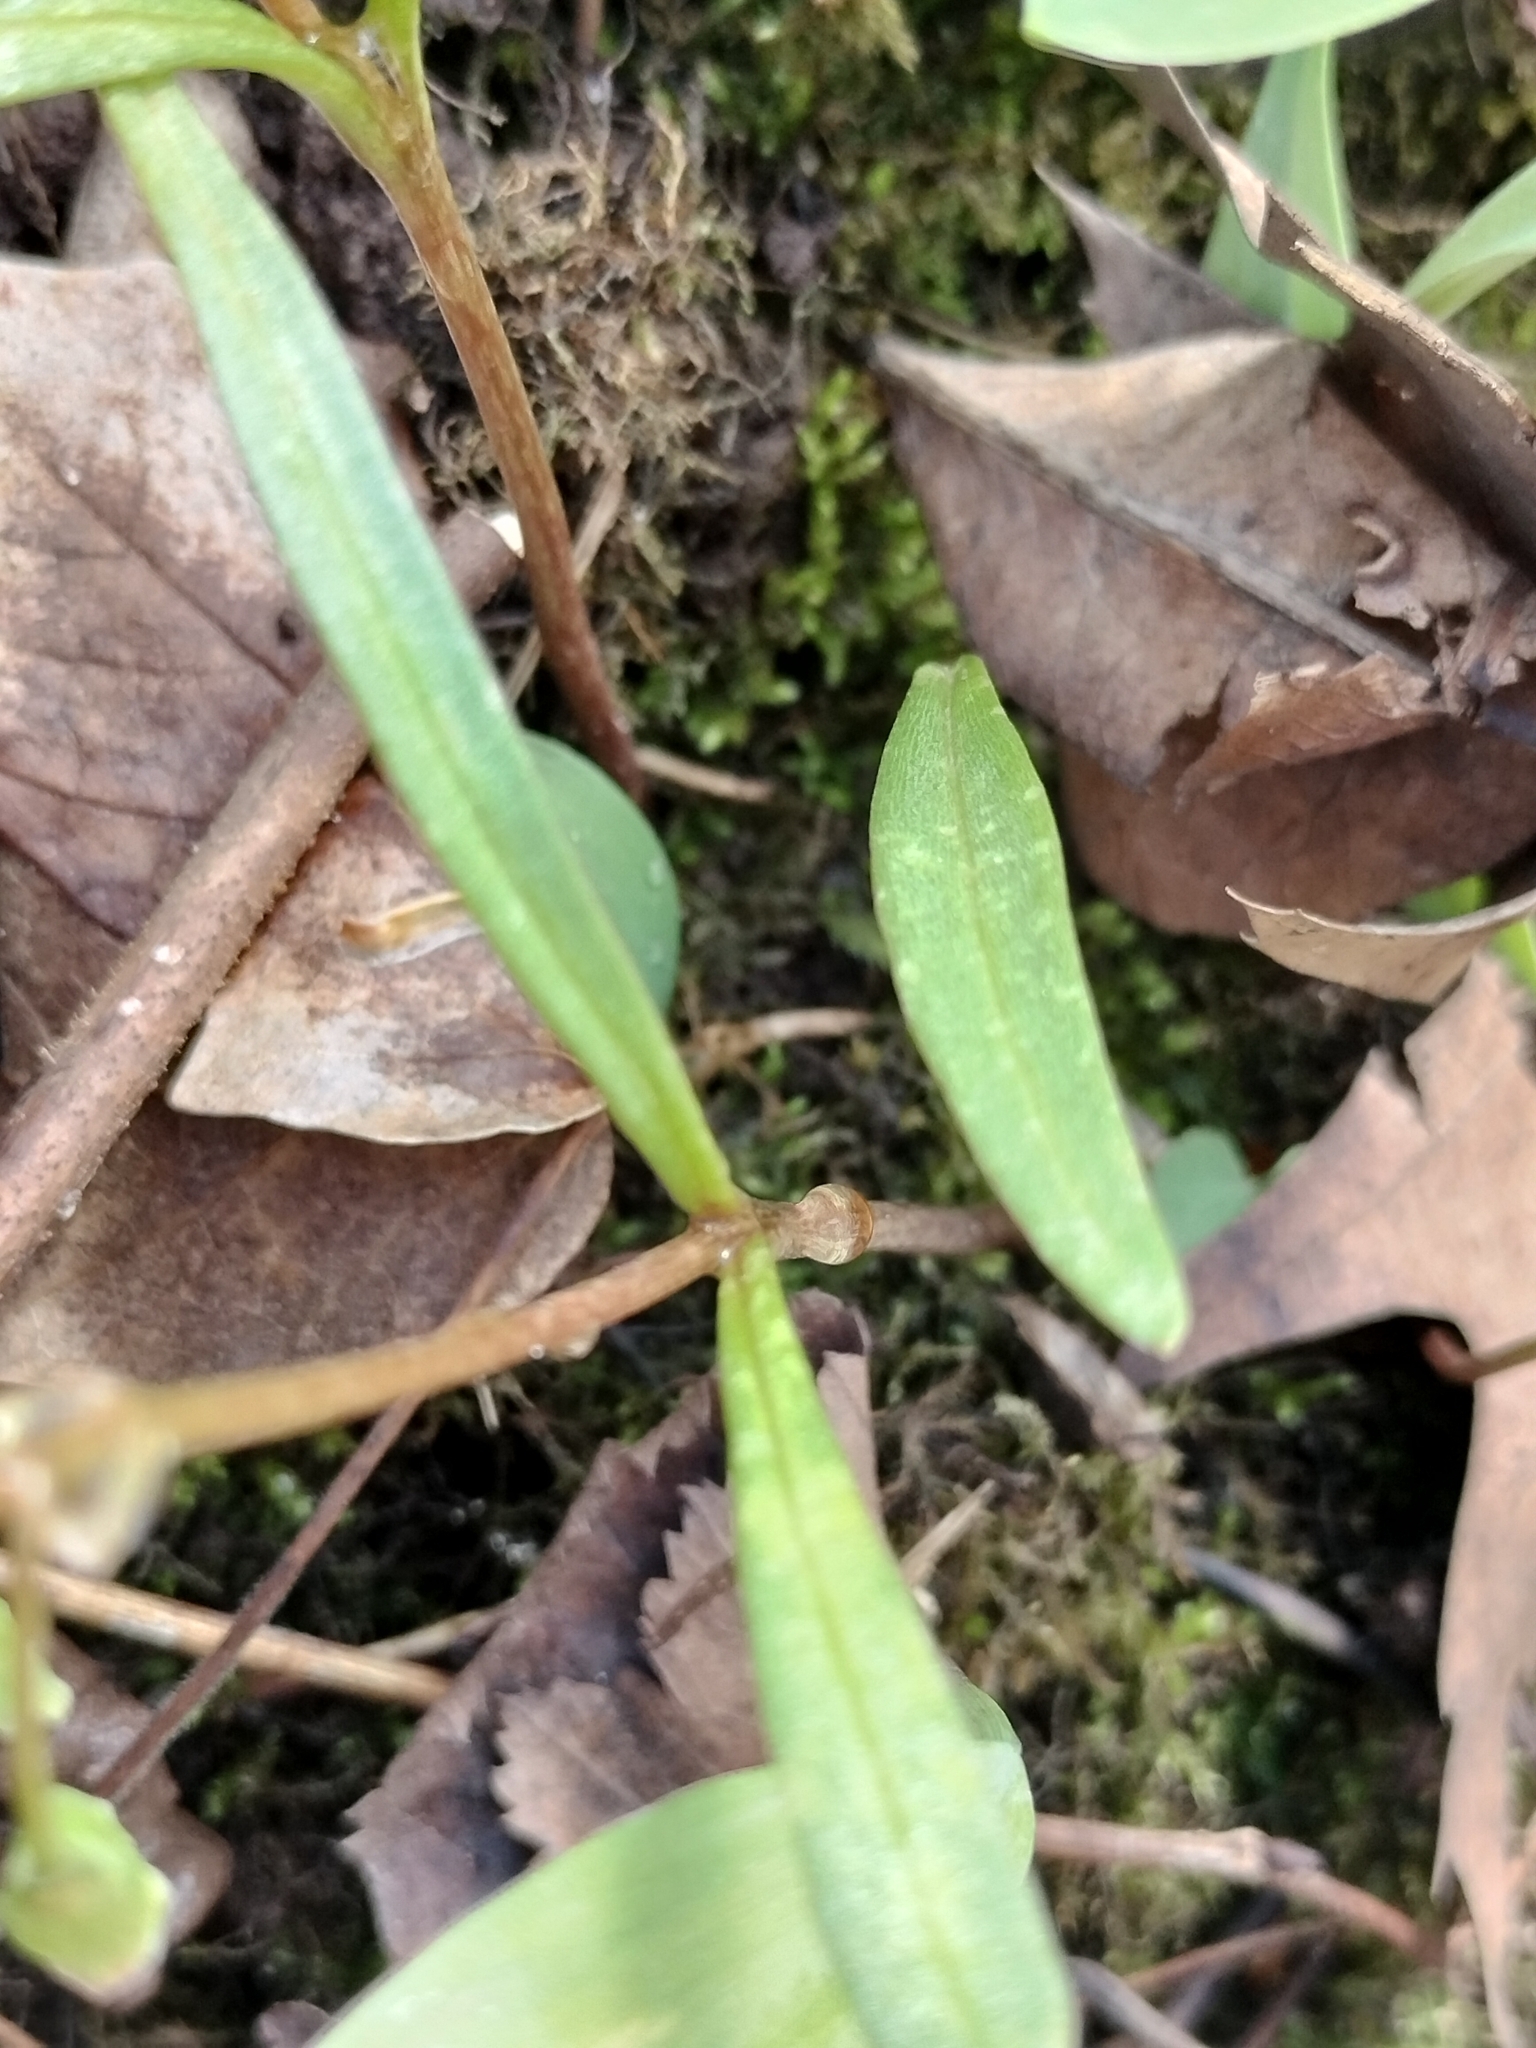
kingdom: Plantae
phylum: Tracheophyta
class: Magnoliopsida
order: Caryophyllales
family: Montiaceae
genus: Claytonia
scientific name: Claytonia virginica
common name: Virginia springbeauty
